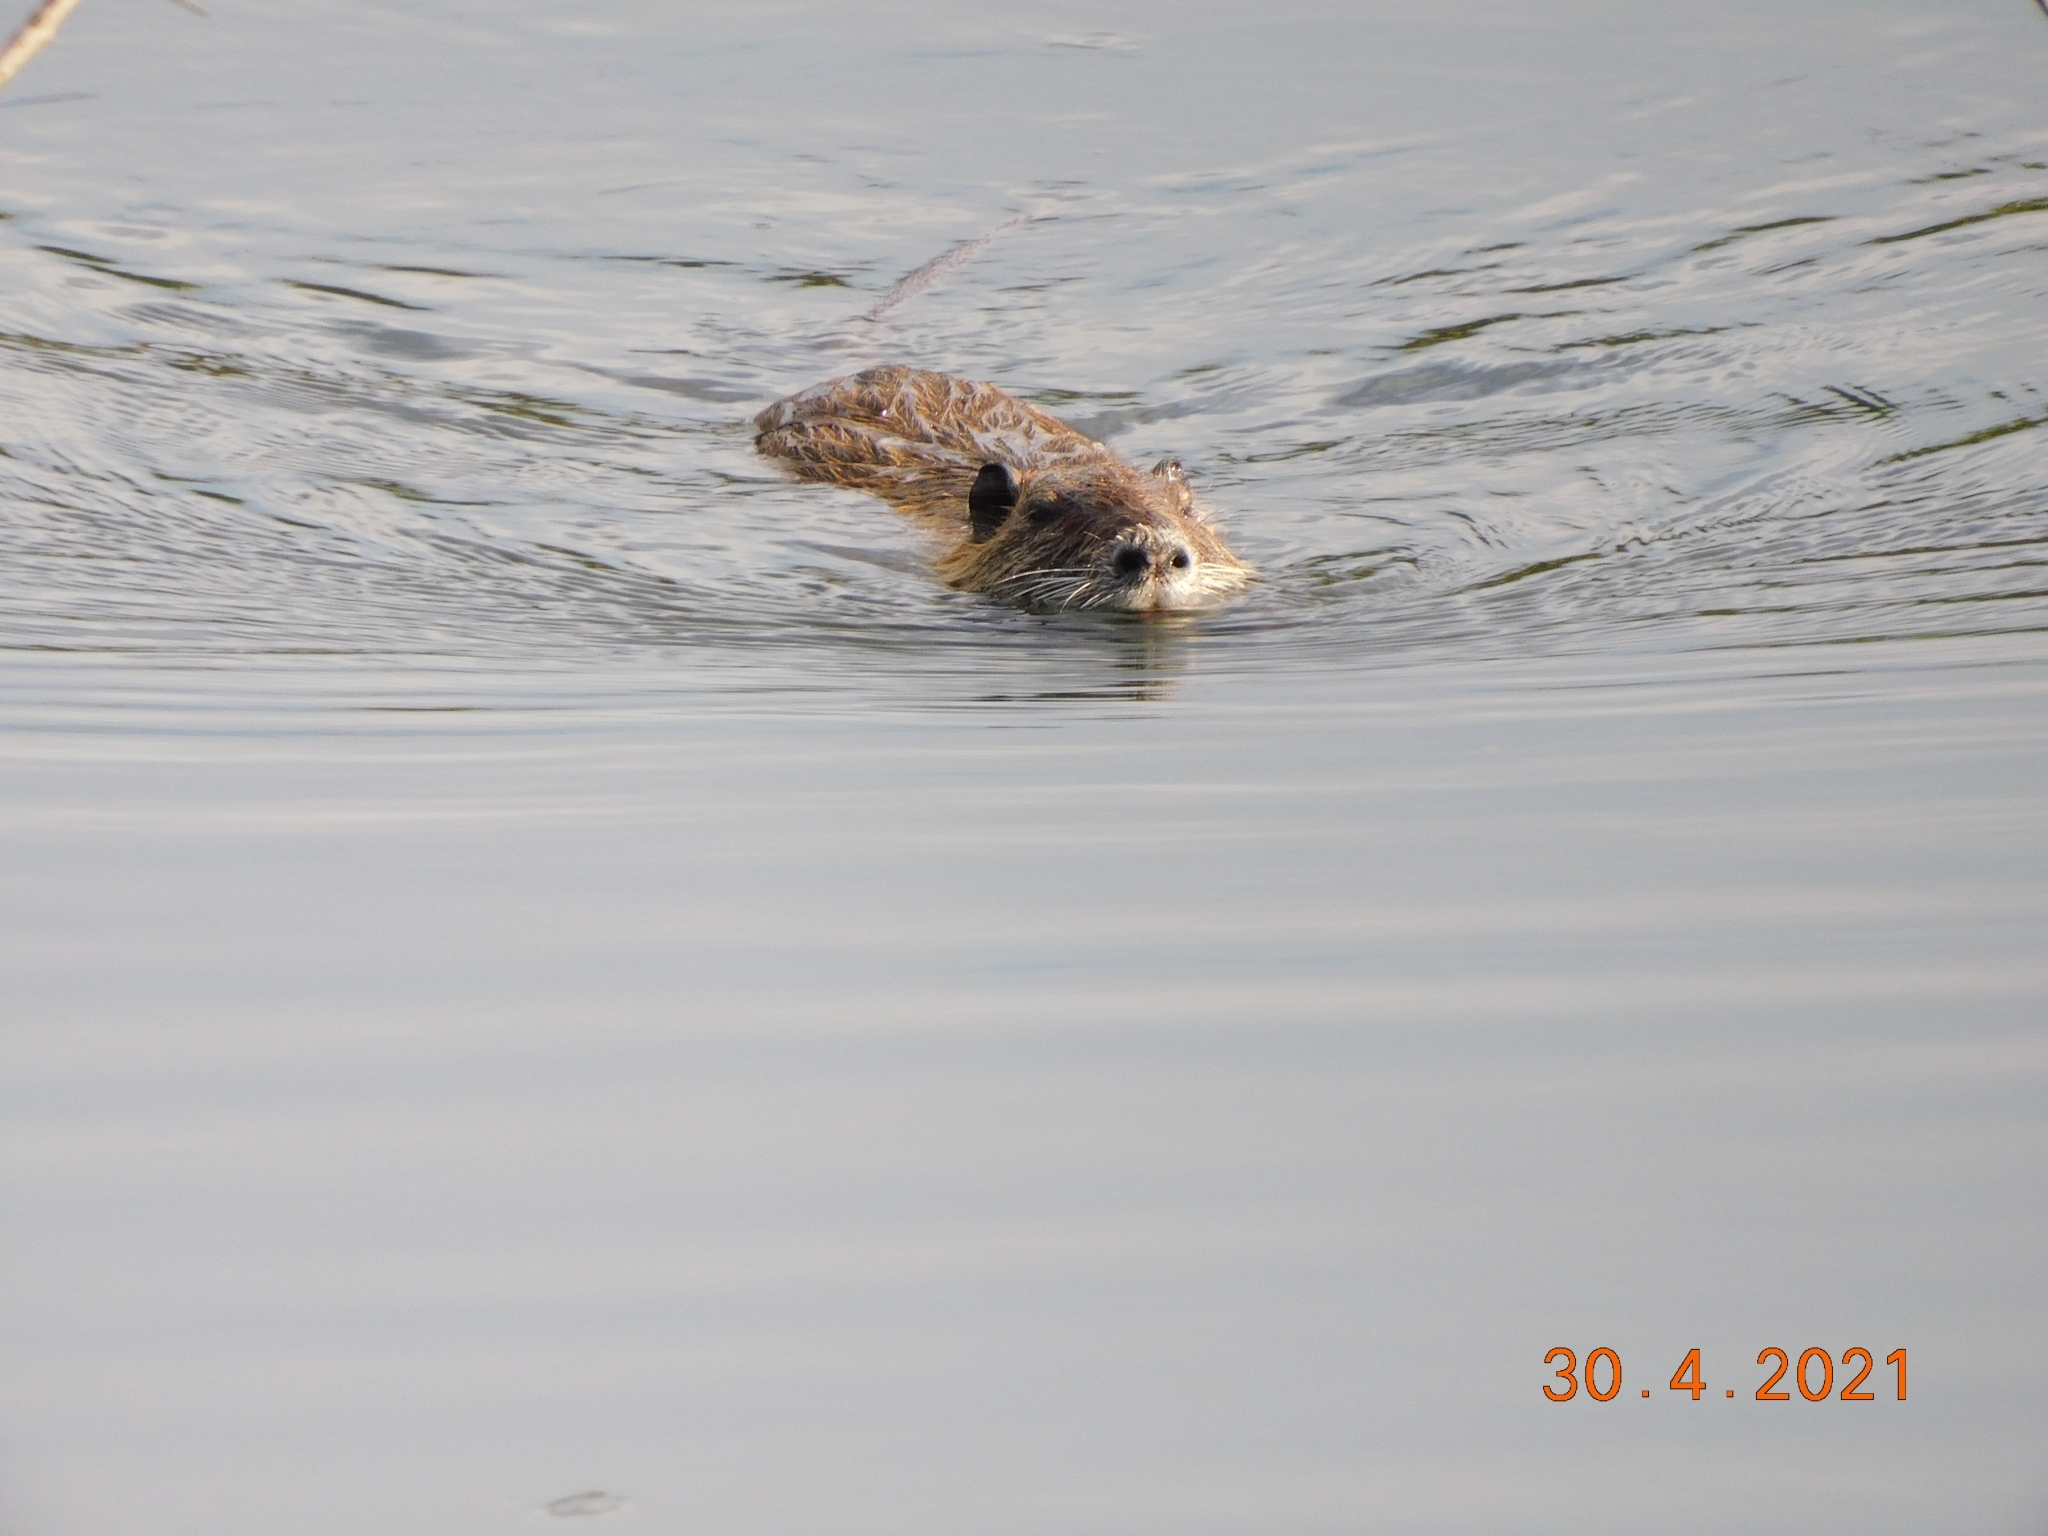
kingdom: Animalia
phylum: Chordata
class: Mammalia
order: Rodentia
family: Myocastoridae
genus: Myocastor
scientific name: Myocastor coypus
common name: Coypu
